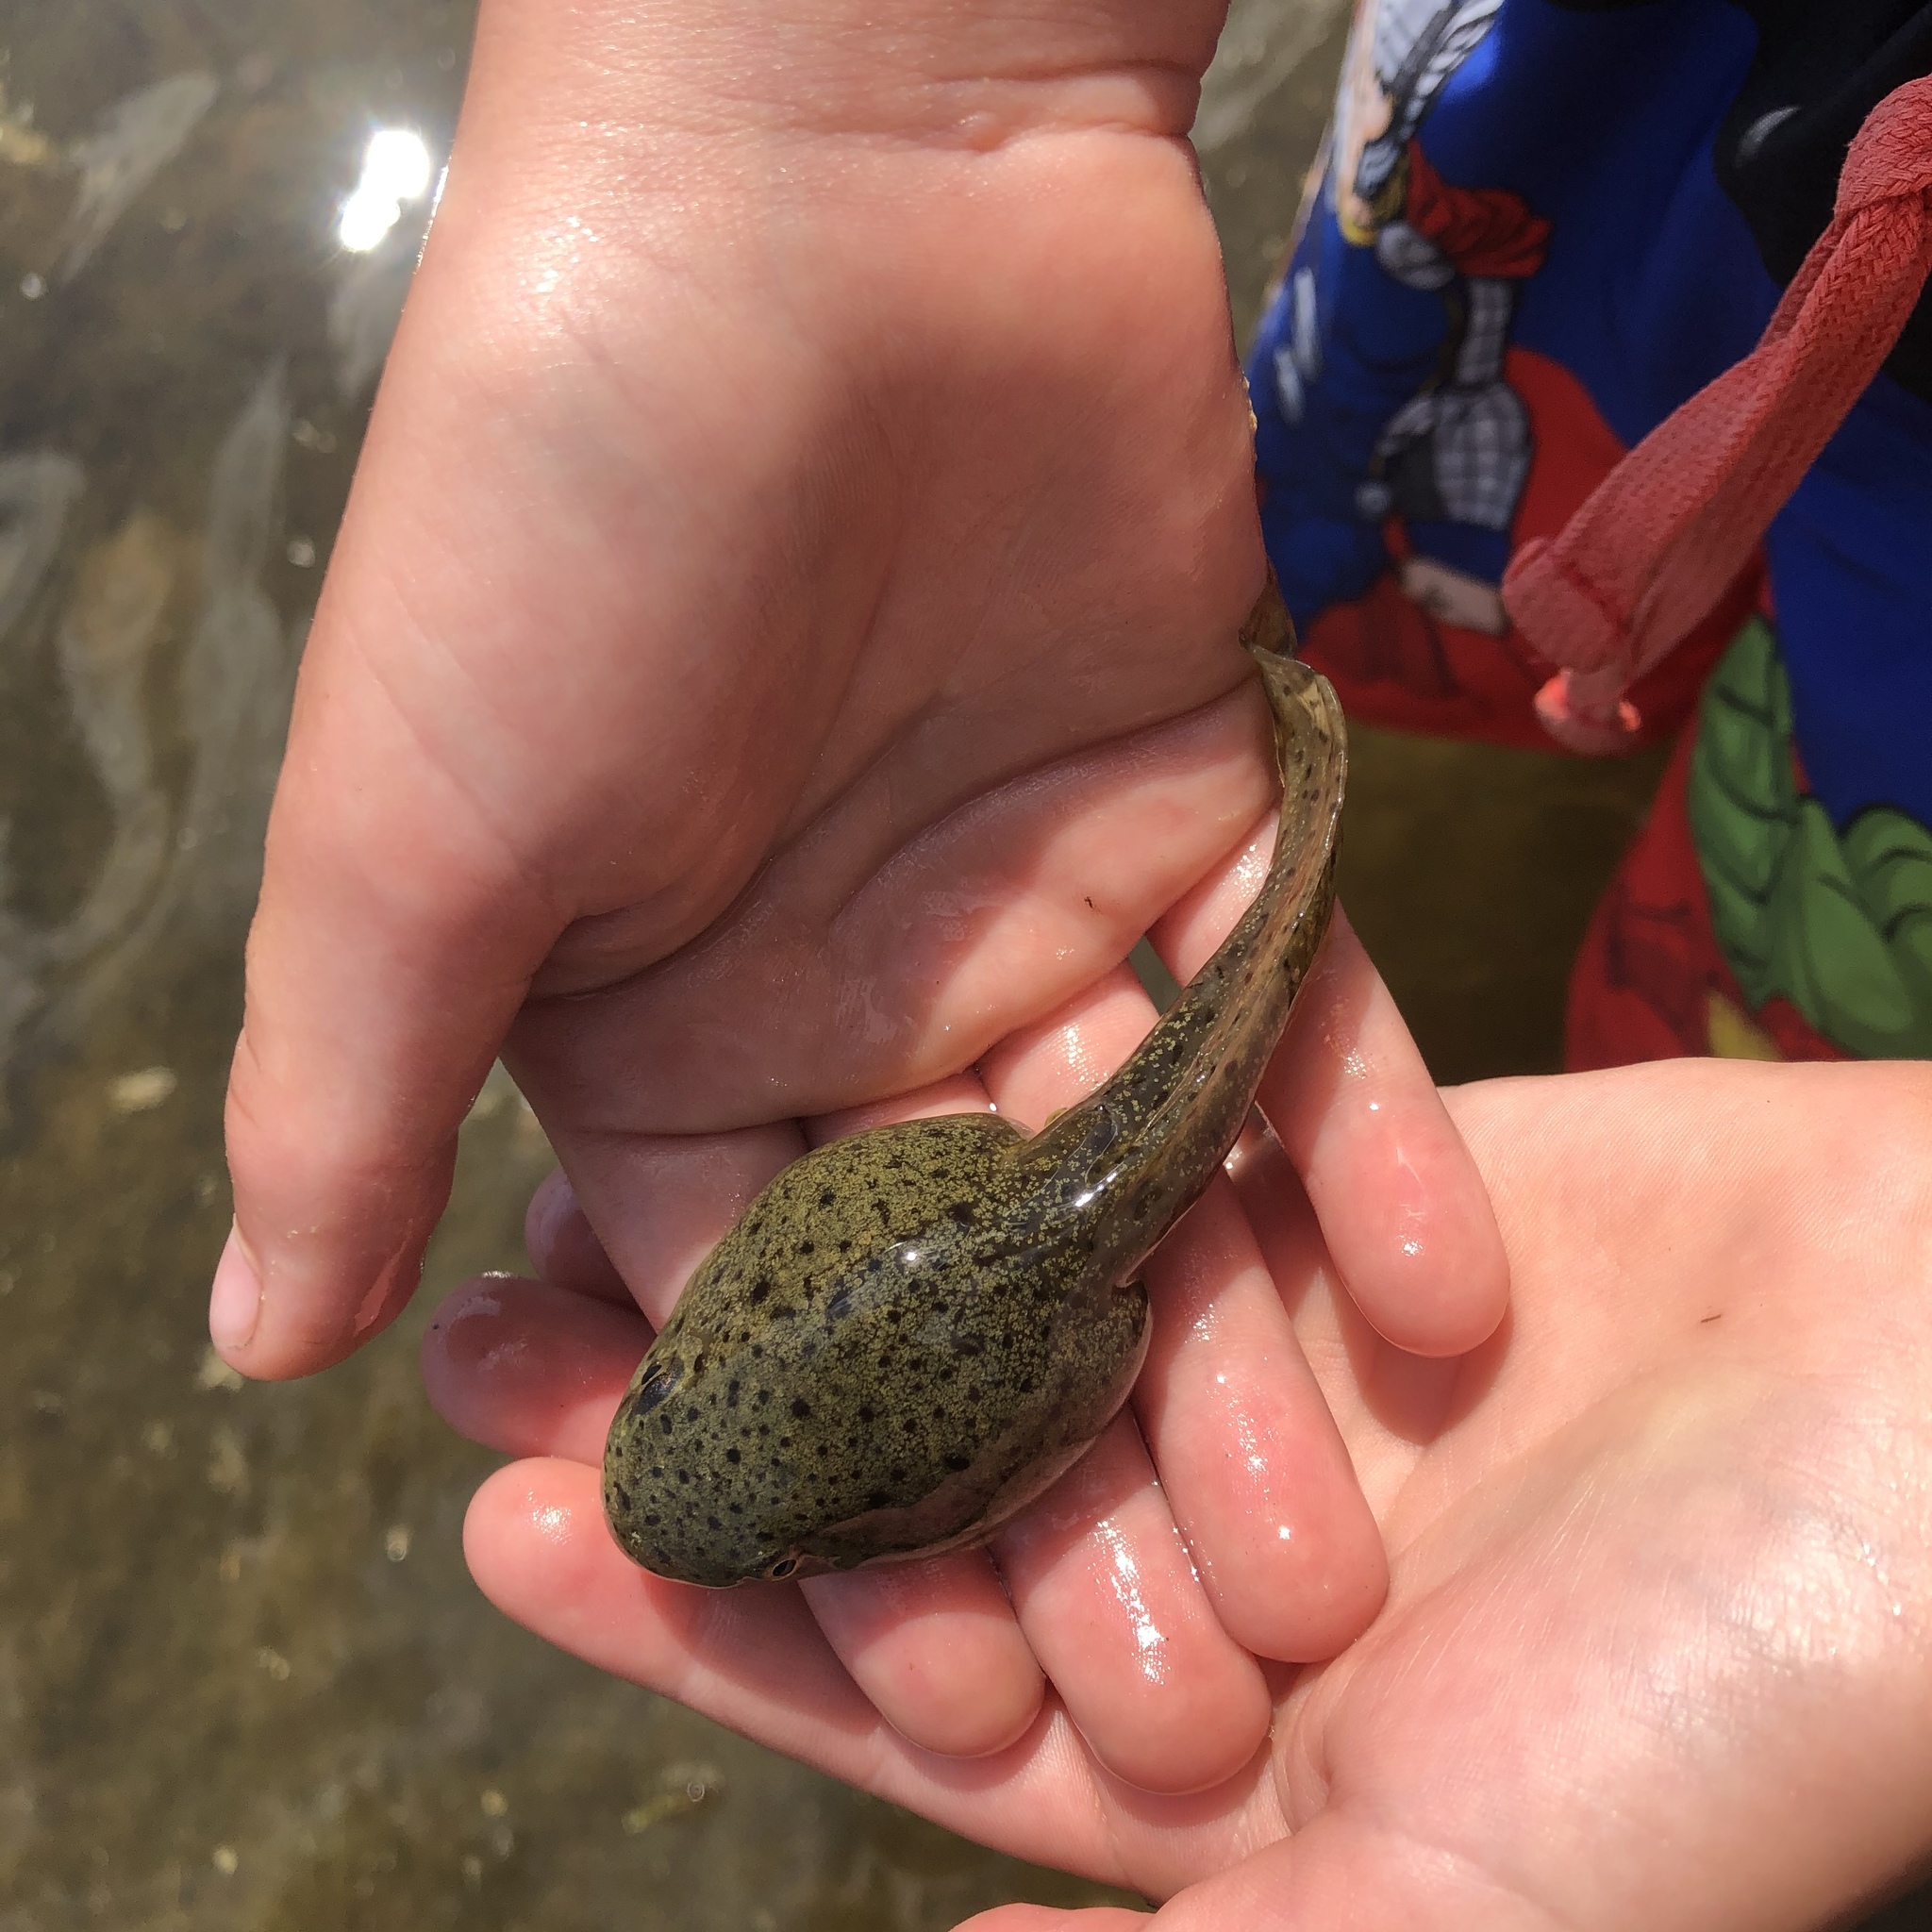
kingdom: Animalia
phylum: Chordata
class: Amphibia
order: Anura
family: Ranidae
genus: Lithobates
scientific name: Lithobates catesbeianus
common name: American bullfrog
